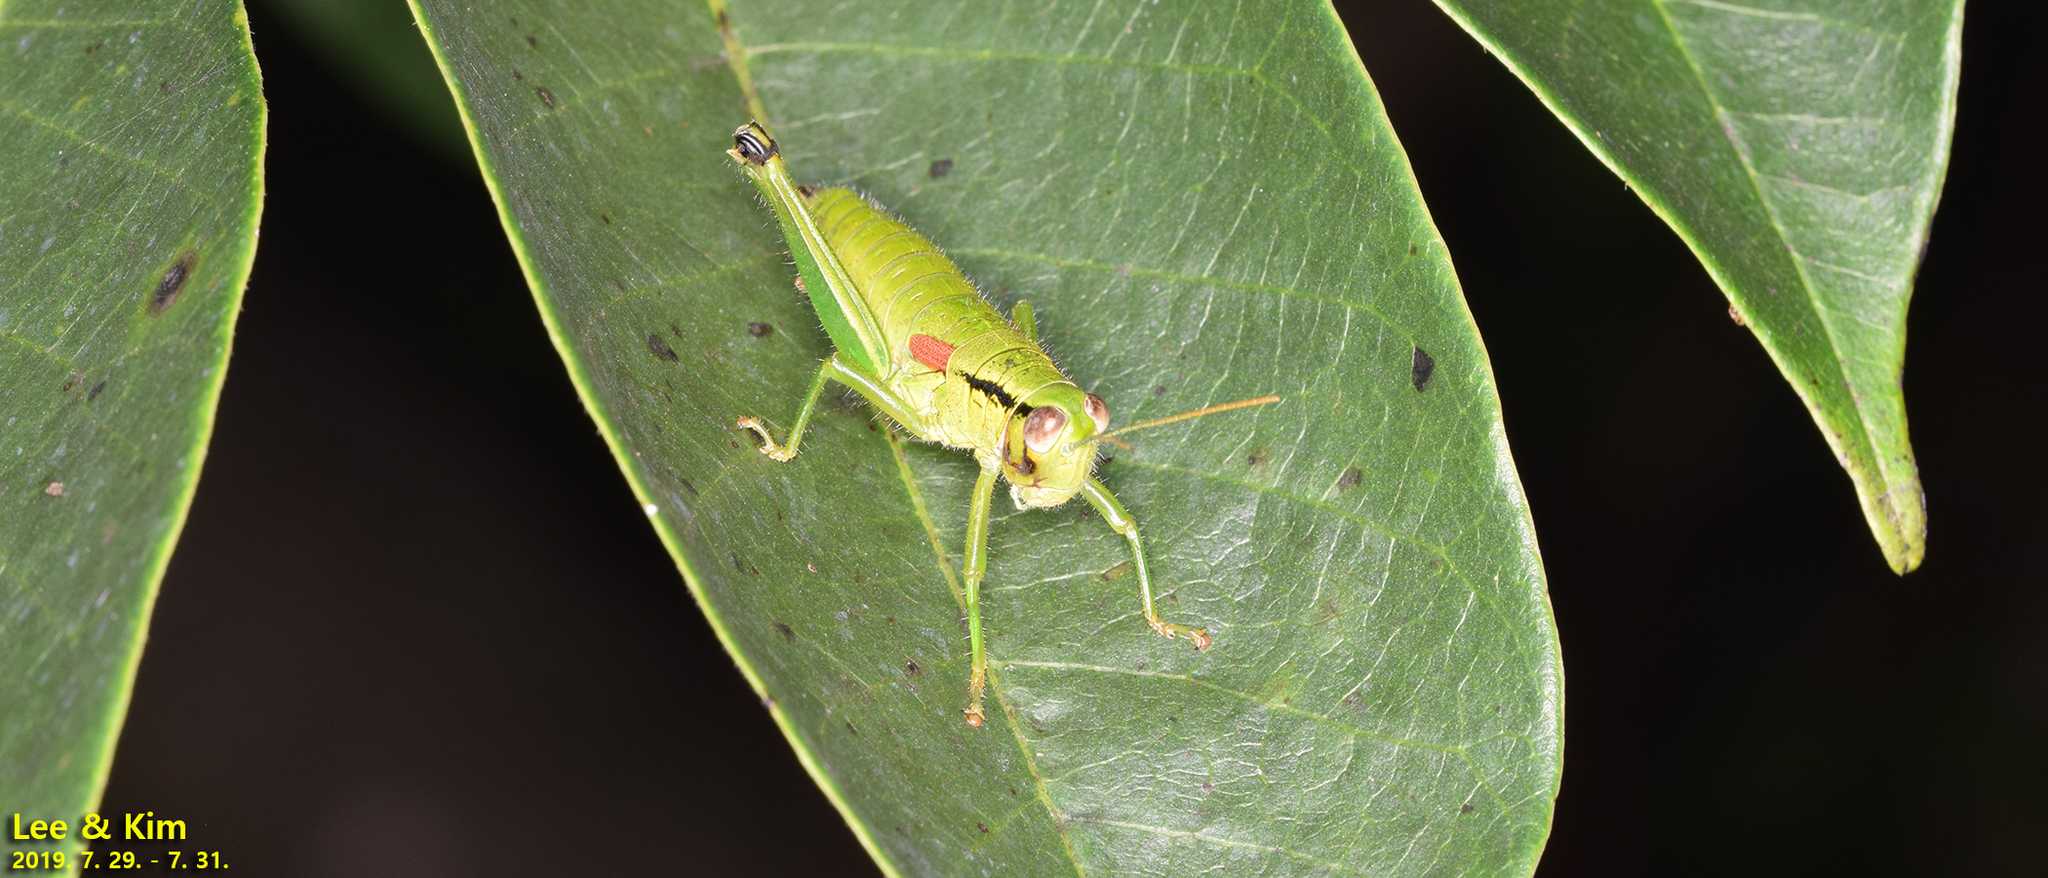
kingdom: Animalia
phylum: Arthropoda
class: Insecta
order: Orthoptera
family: Acrididae
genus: Anapodisma
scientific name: Anapodisma beybienkoi
